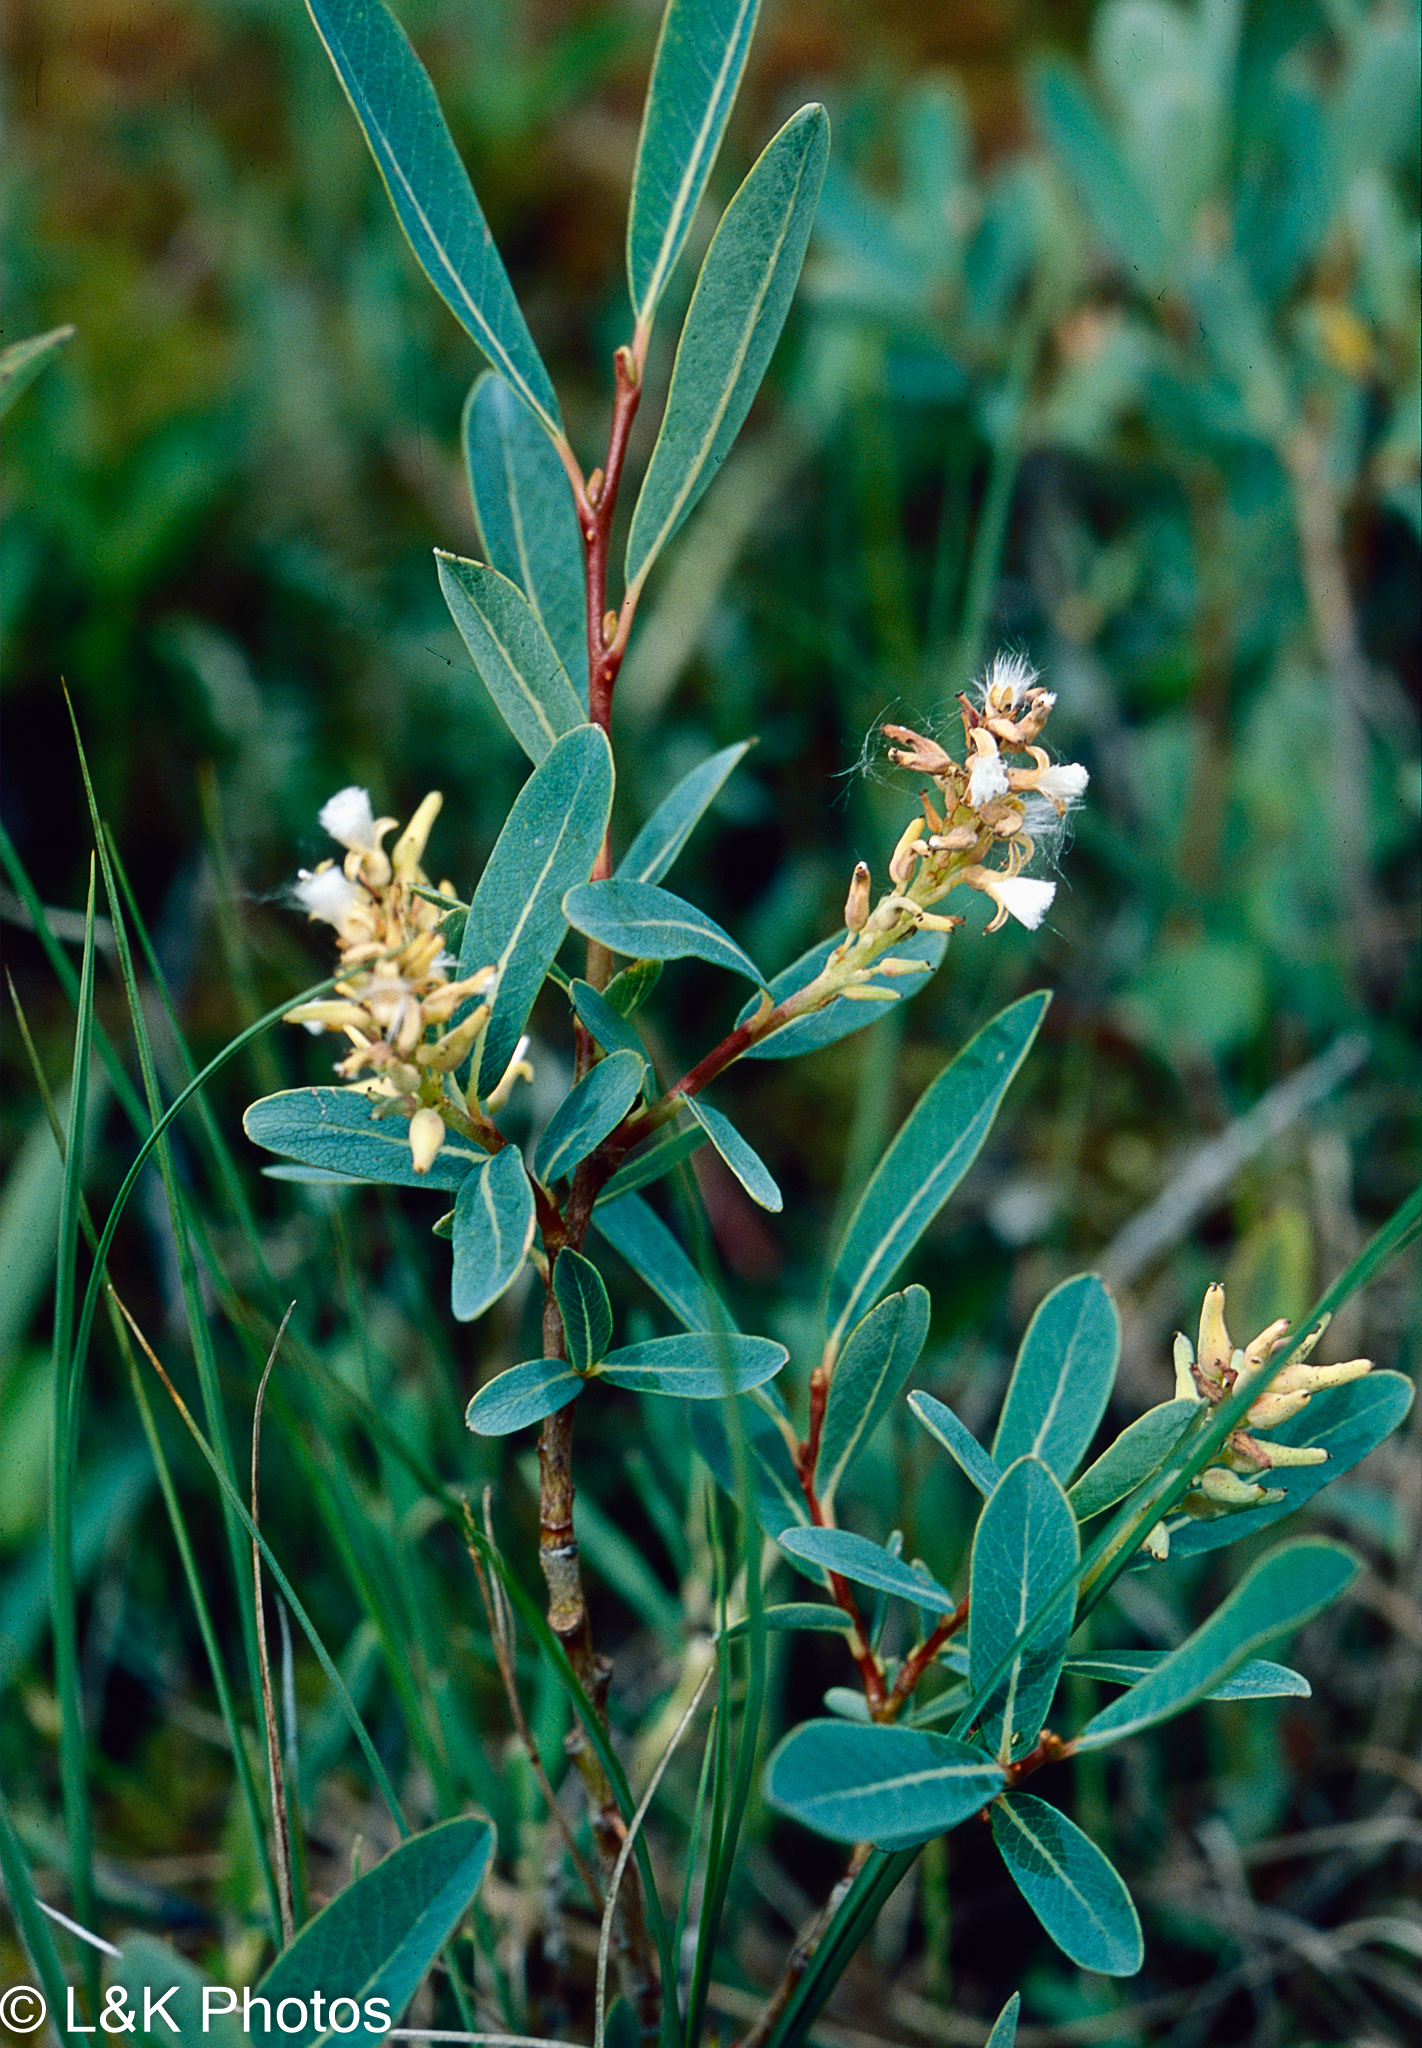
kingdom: Plantae
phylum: Tracheophyta
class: Magnoliopsida
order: Malpighiales
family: Salicaceae
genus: Salix
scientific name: Salix pedicellaris
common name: Bog willow
